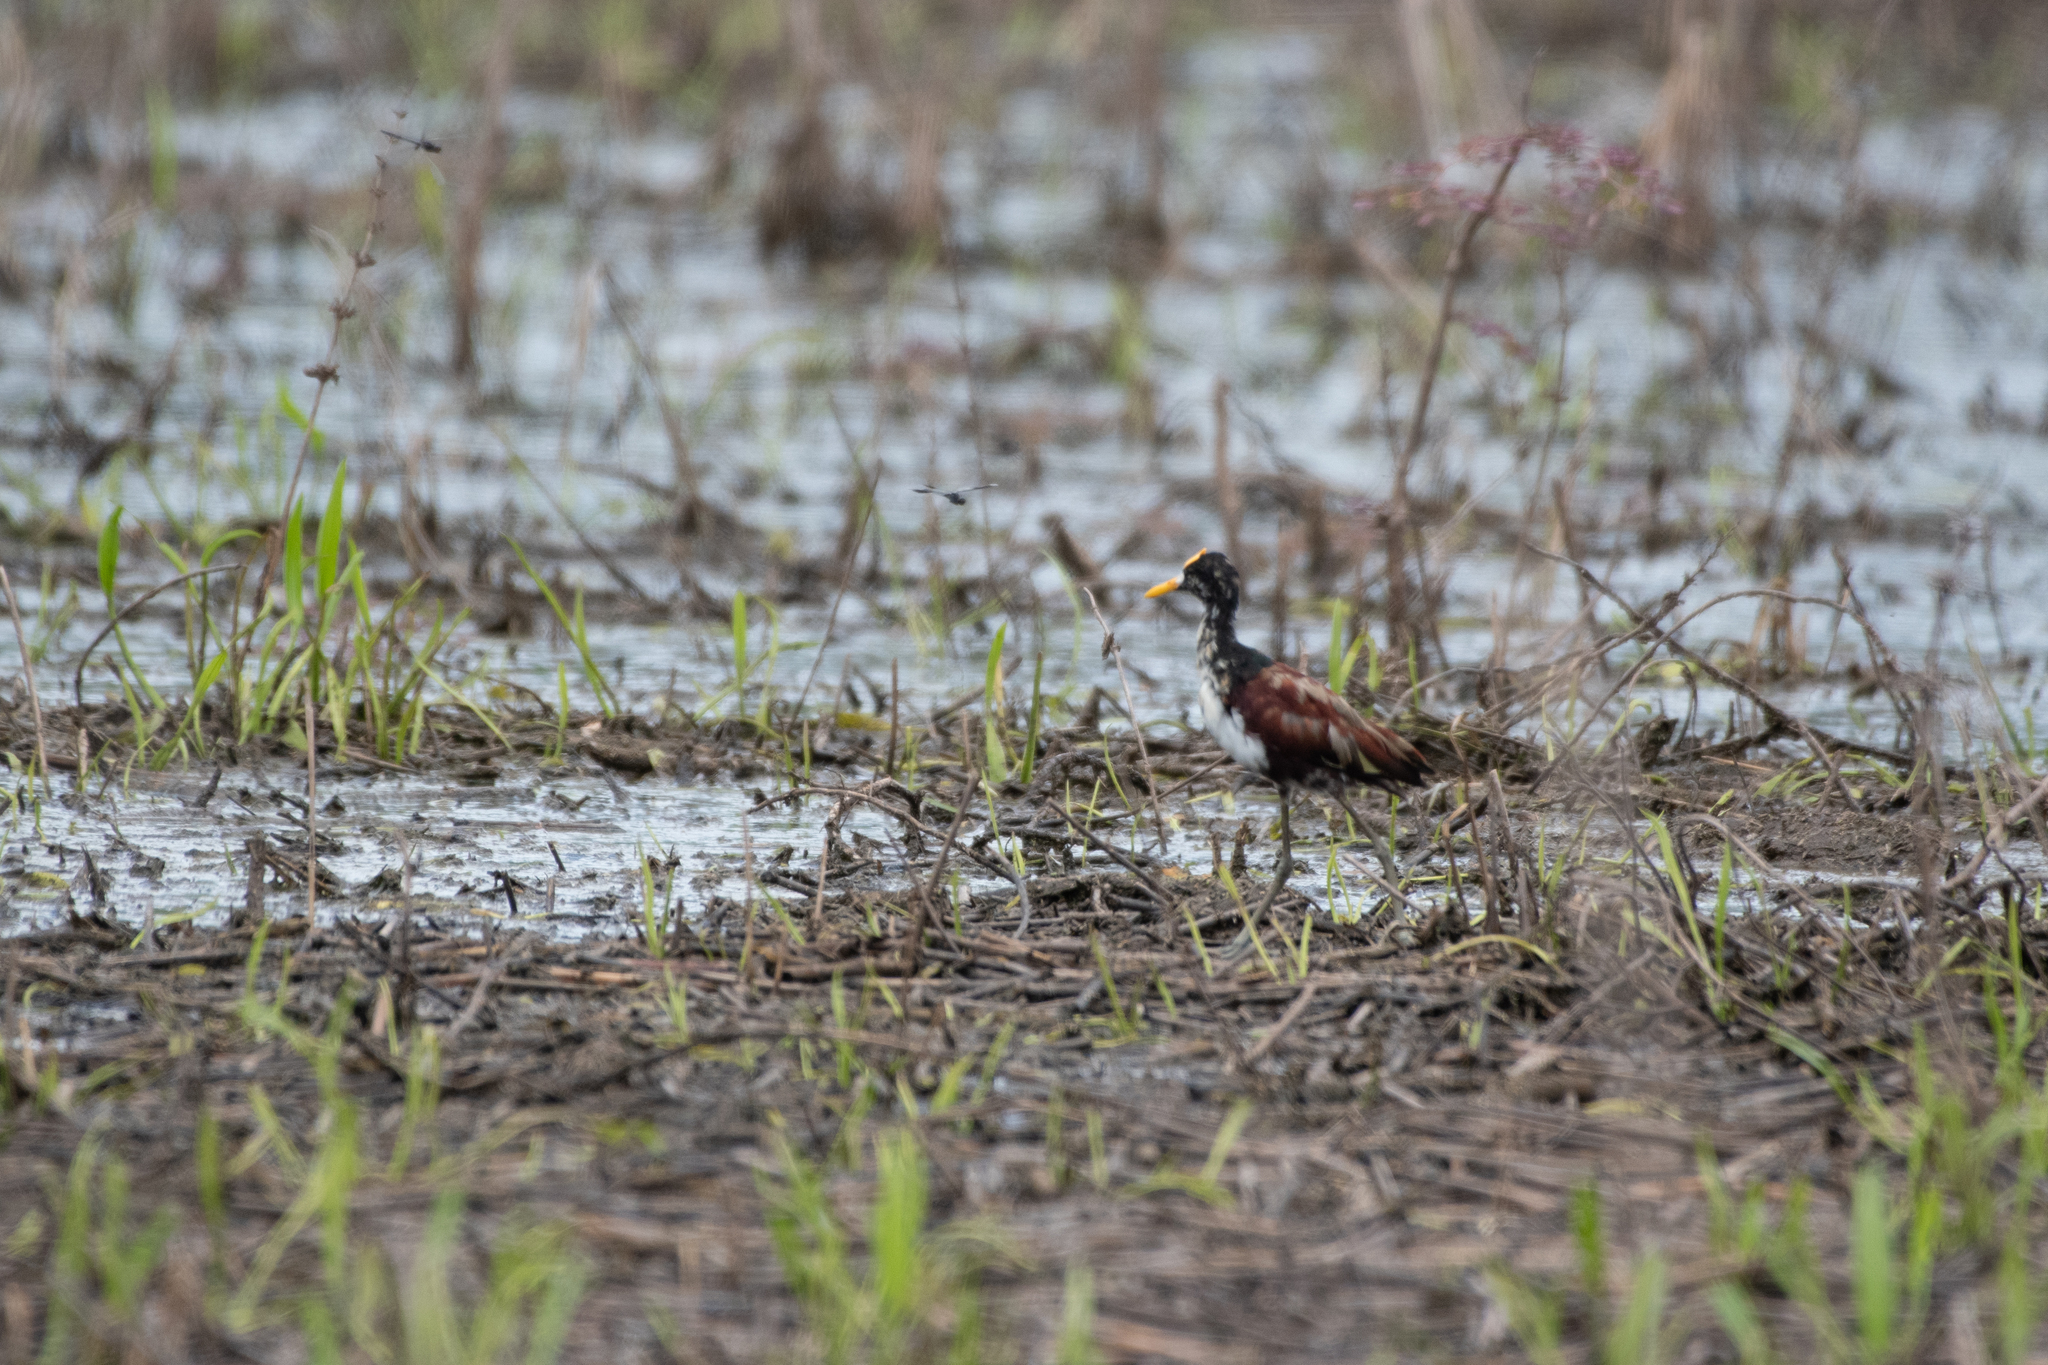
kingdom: Animalia
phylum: Chordata
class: Aves
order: Charadriiformes
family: Jacanidae
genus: Jacana
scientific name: Jacana spinosa
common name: Northern jacana
